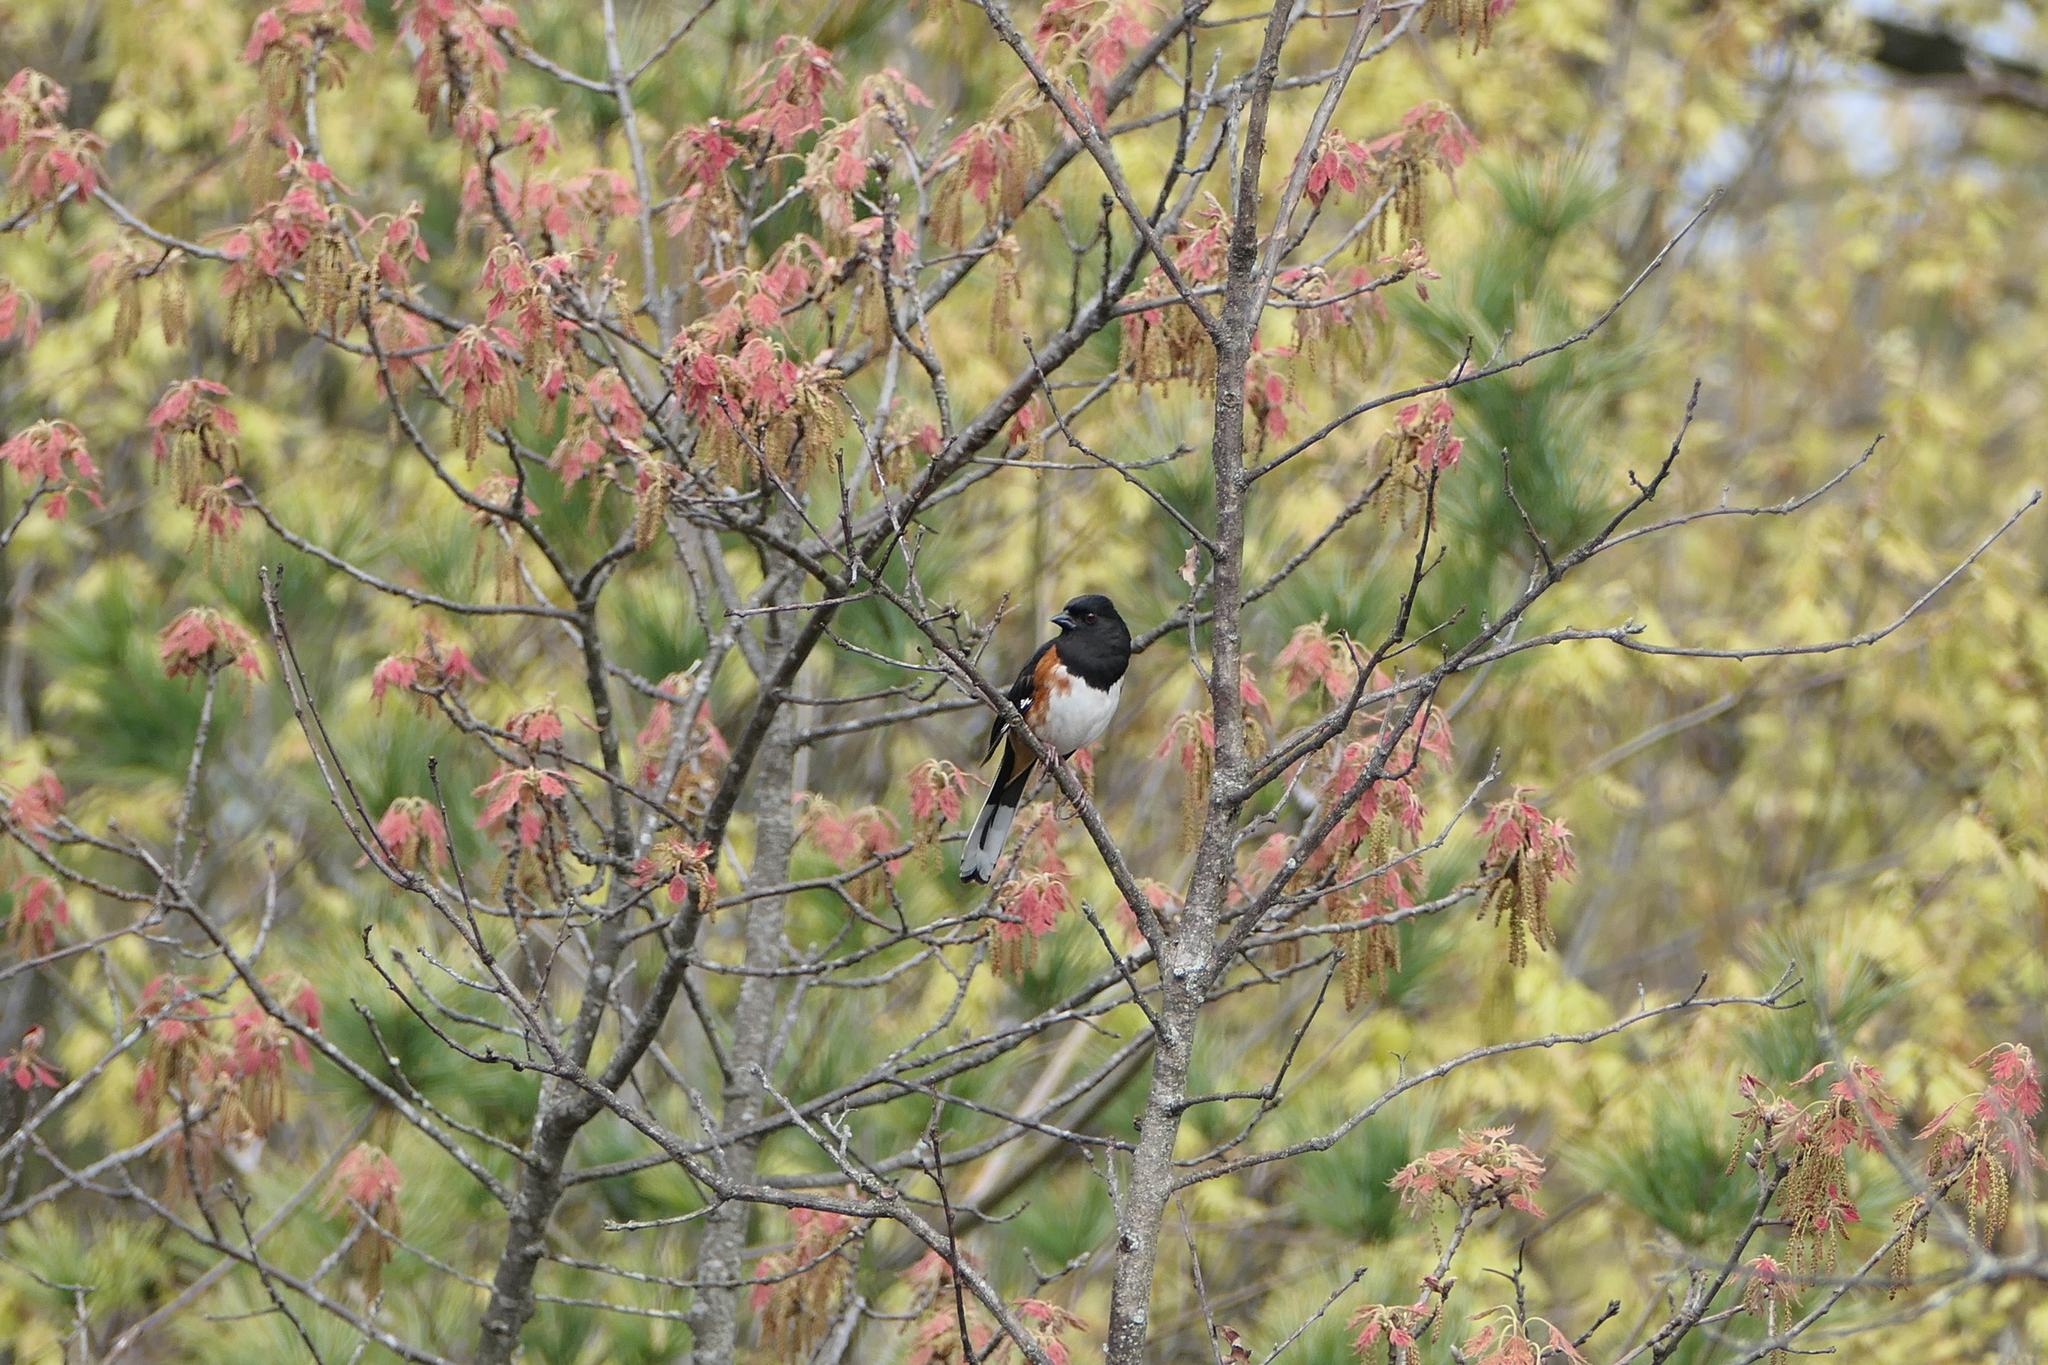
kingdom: Animalia
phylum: Chordata
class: Aves
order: Passeriformes
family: Passerellidae
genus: Pipilo
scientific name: Pipilo erythrophthalmus
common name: Eastern towhee
